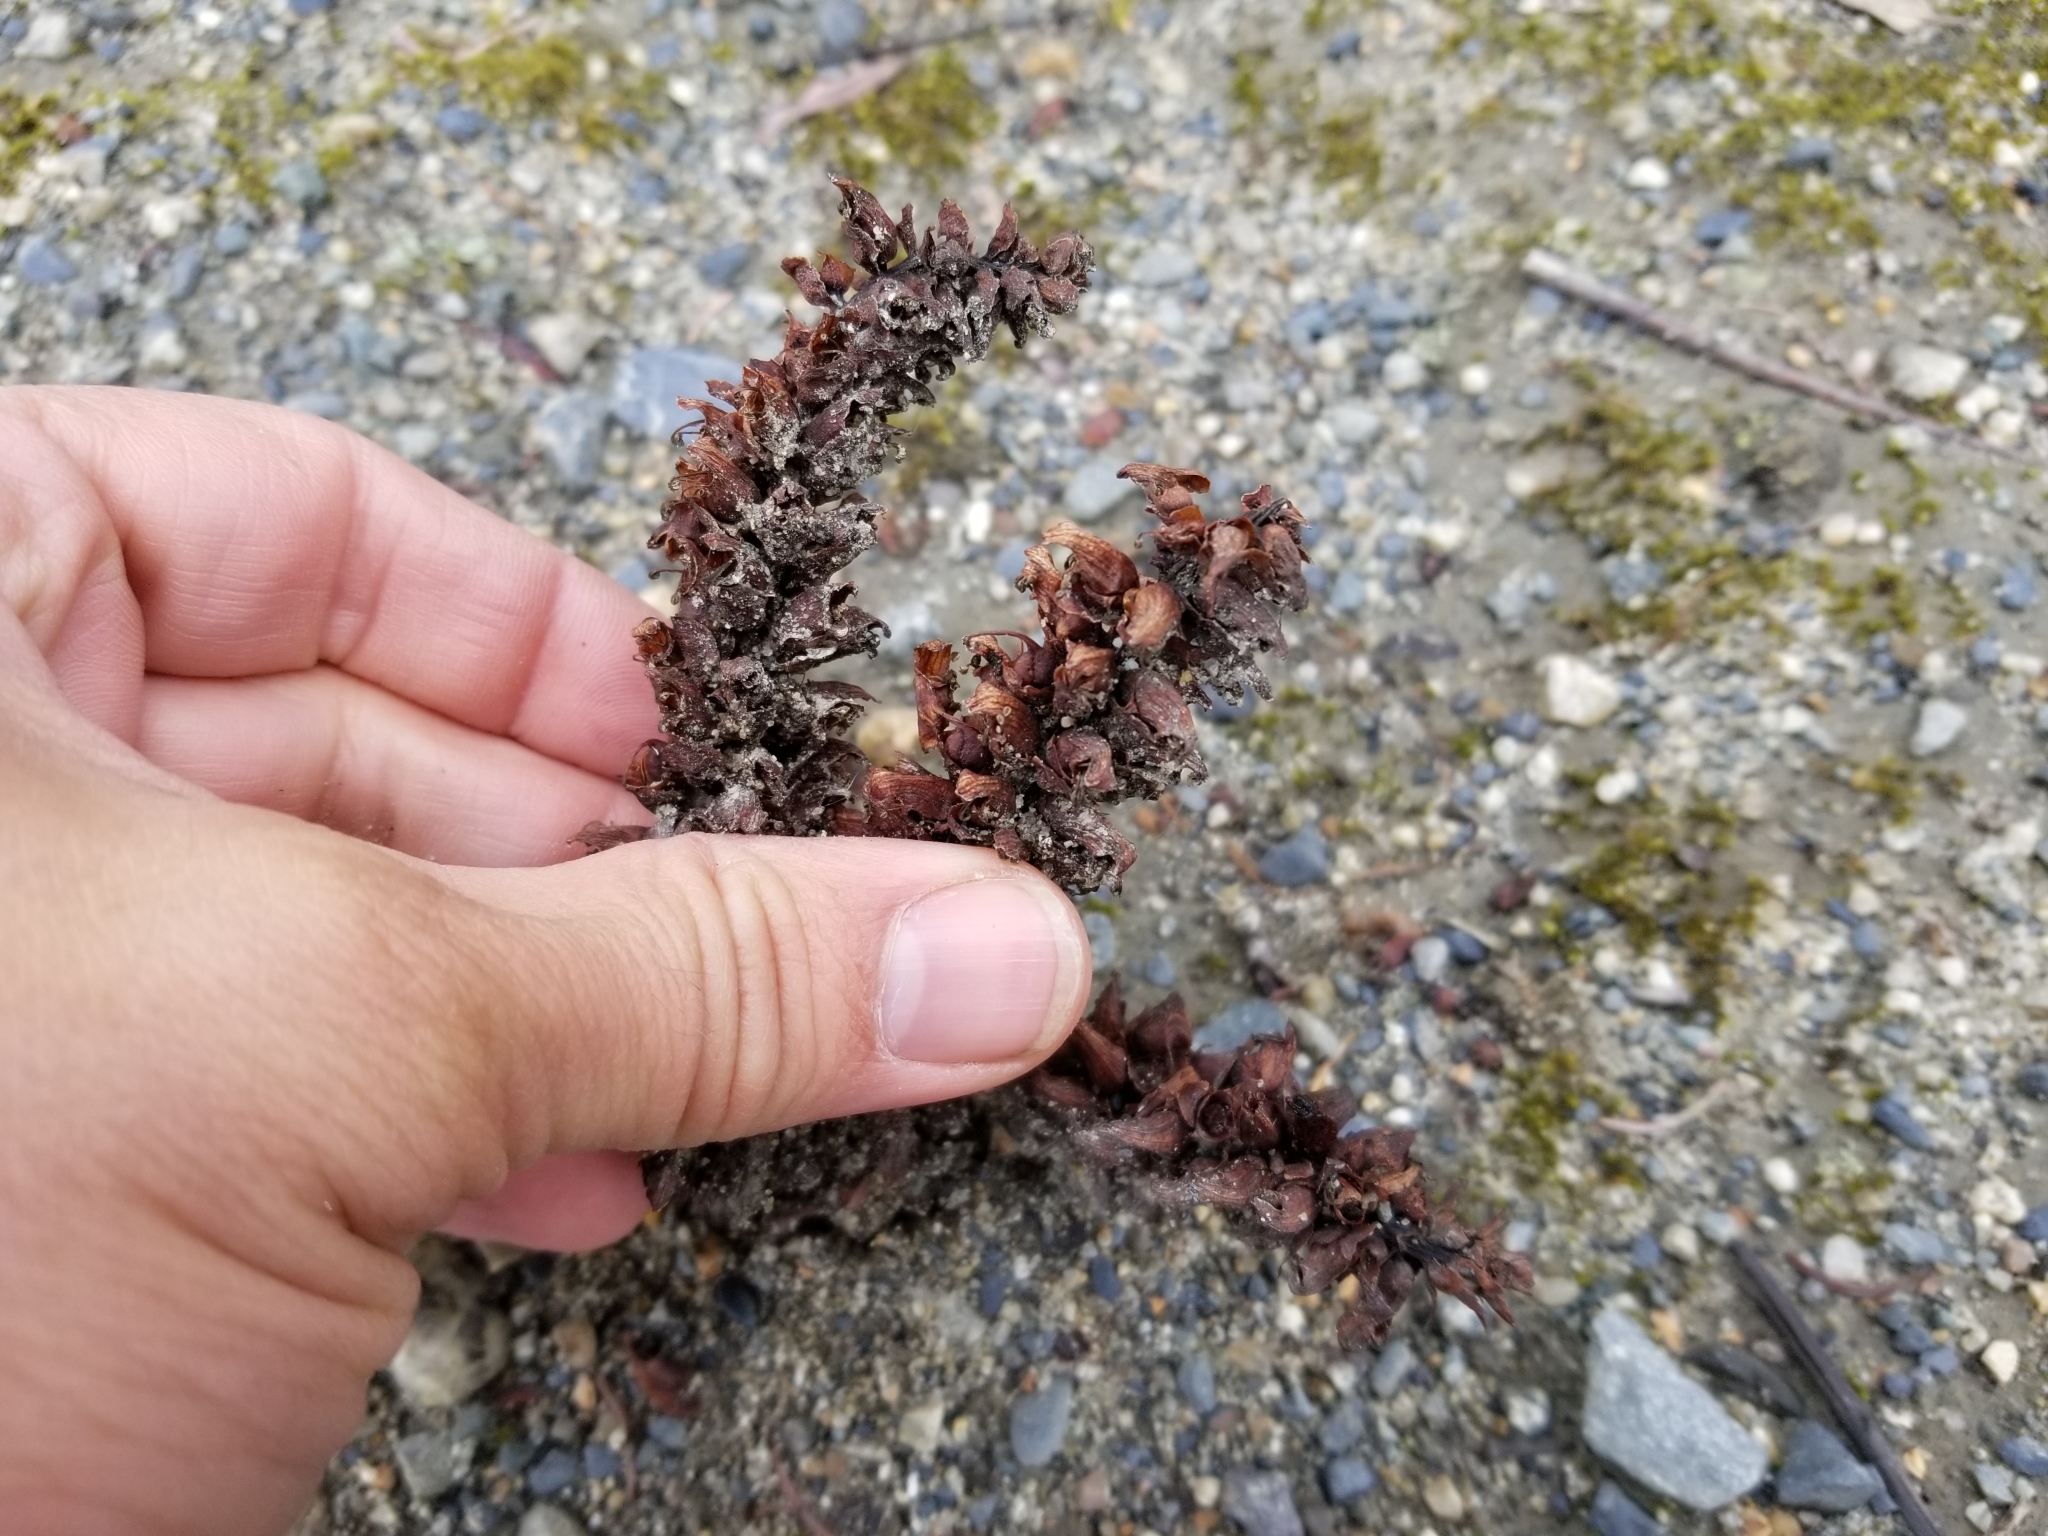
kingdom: Plantae
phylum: Tracheophyta
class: Magnoliopsida
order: Lamiales
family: Orobanchaceae
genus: Boschniakia
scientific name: Boschniakia rossica
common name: Poque
